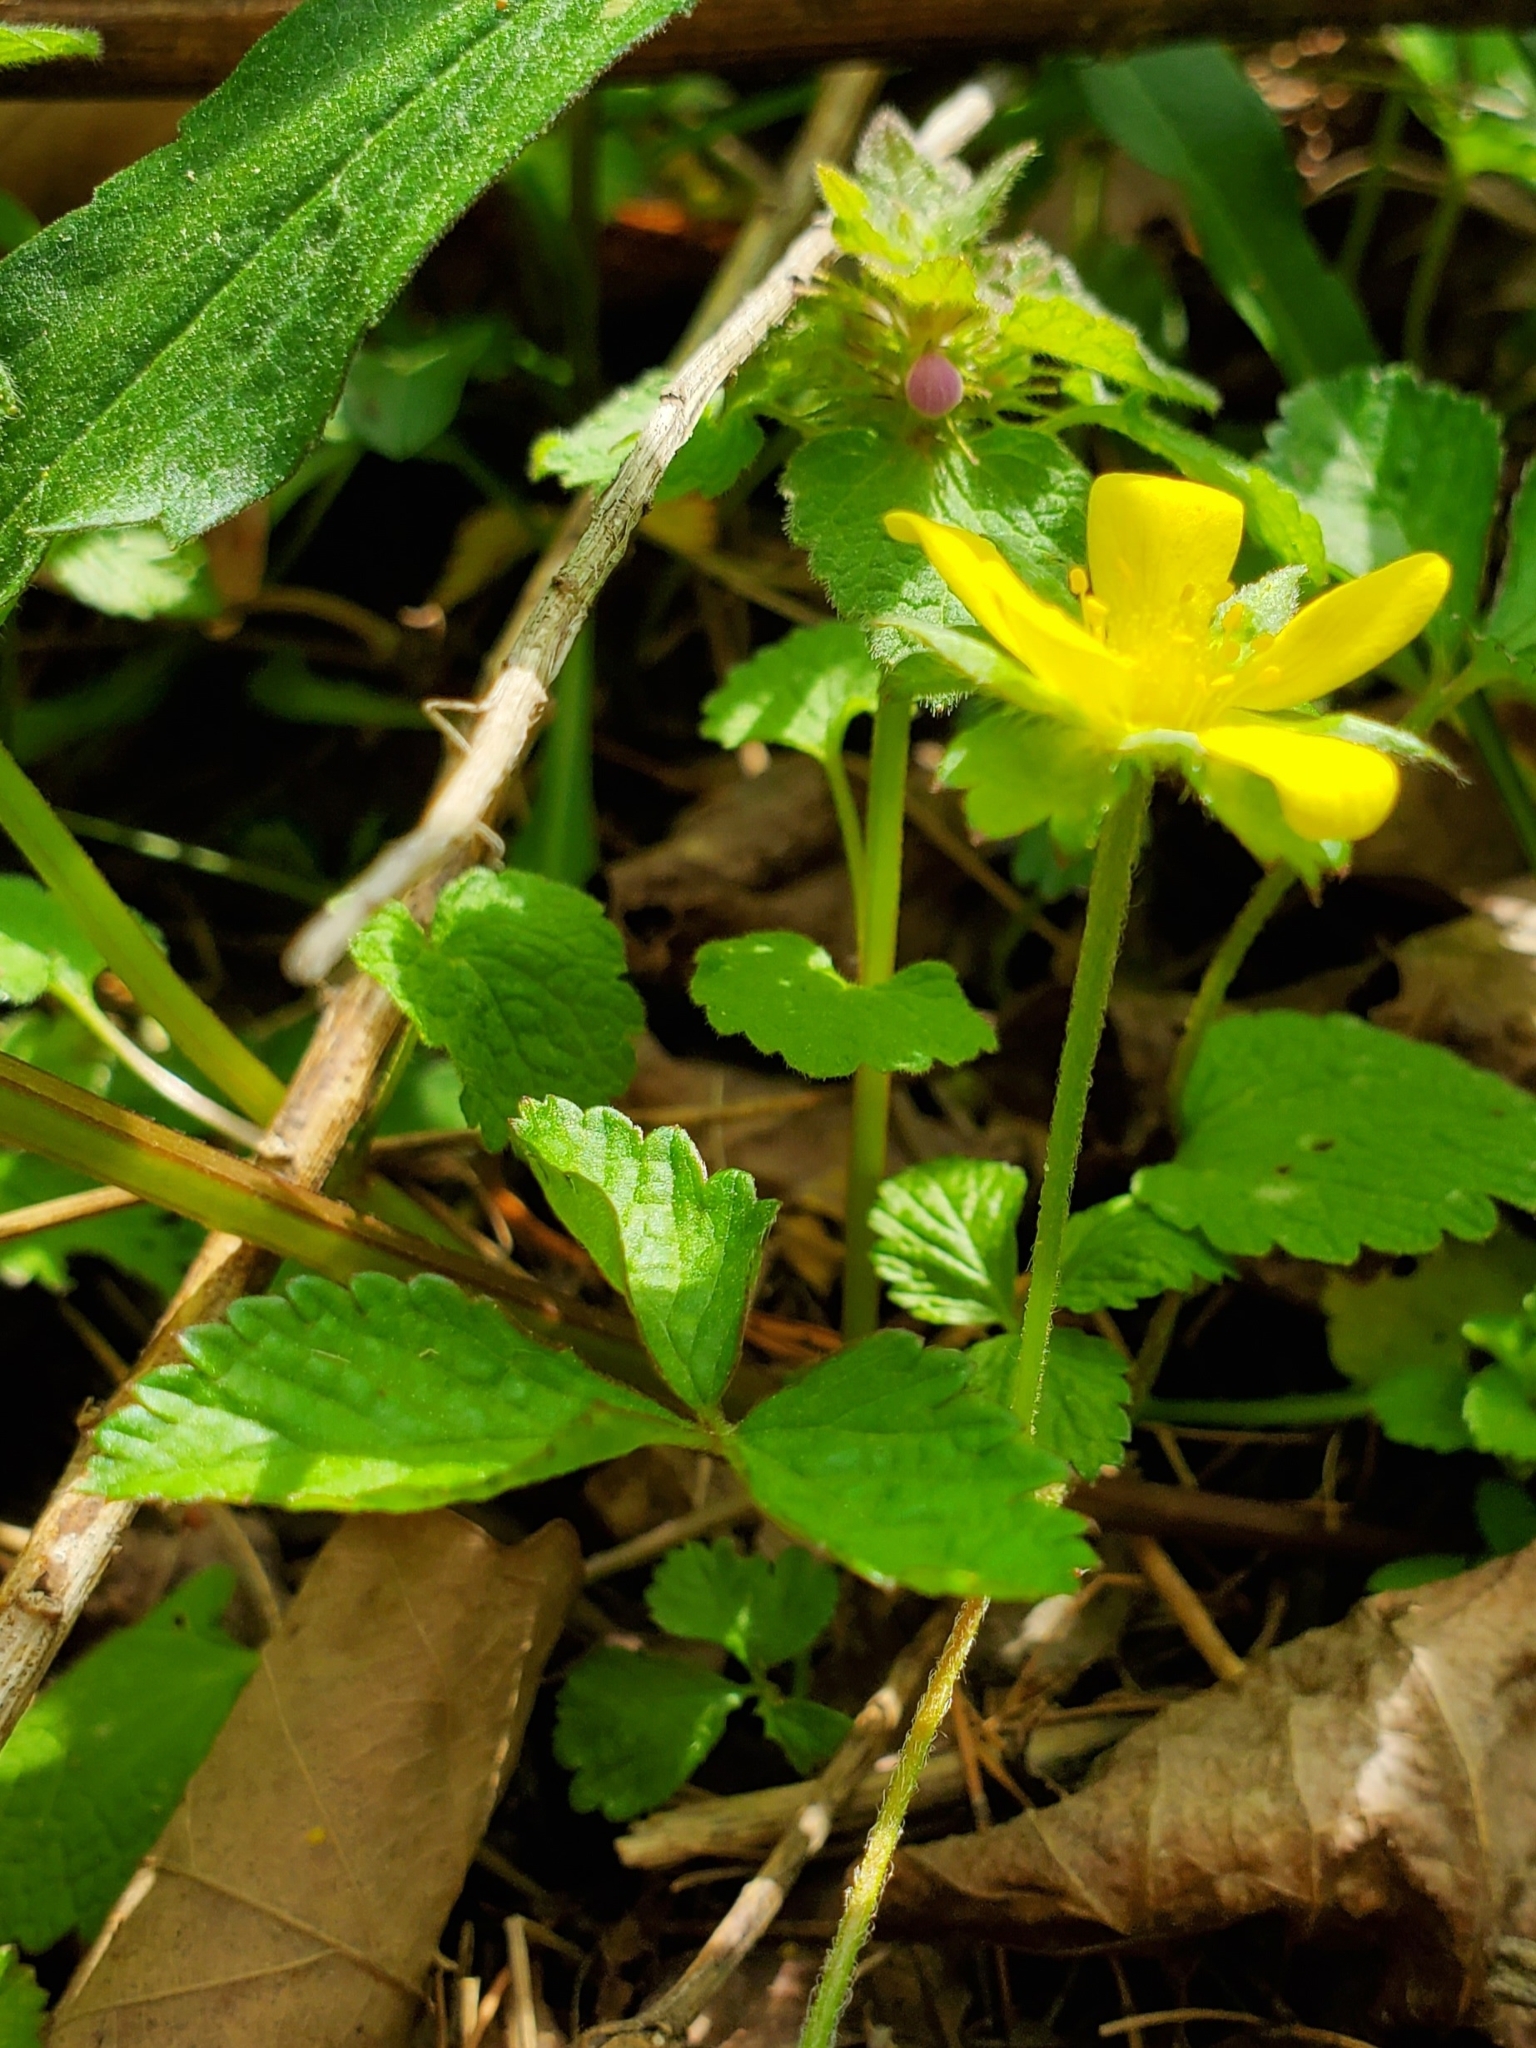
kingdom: Plantae
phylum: Tracheophyta
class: Magnoliopsida
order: Rosales
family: Rosaceae
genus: Potentilla
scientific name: Potentilla indica
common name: Yellow-flowered strawberry
